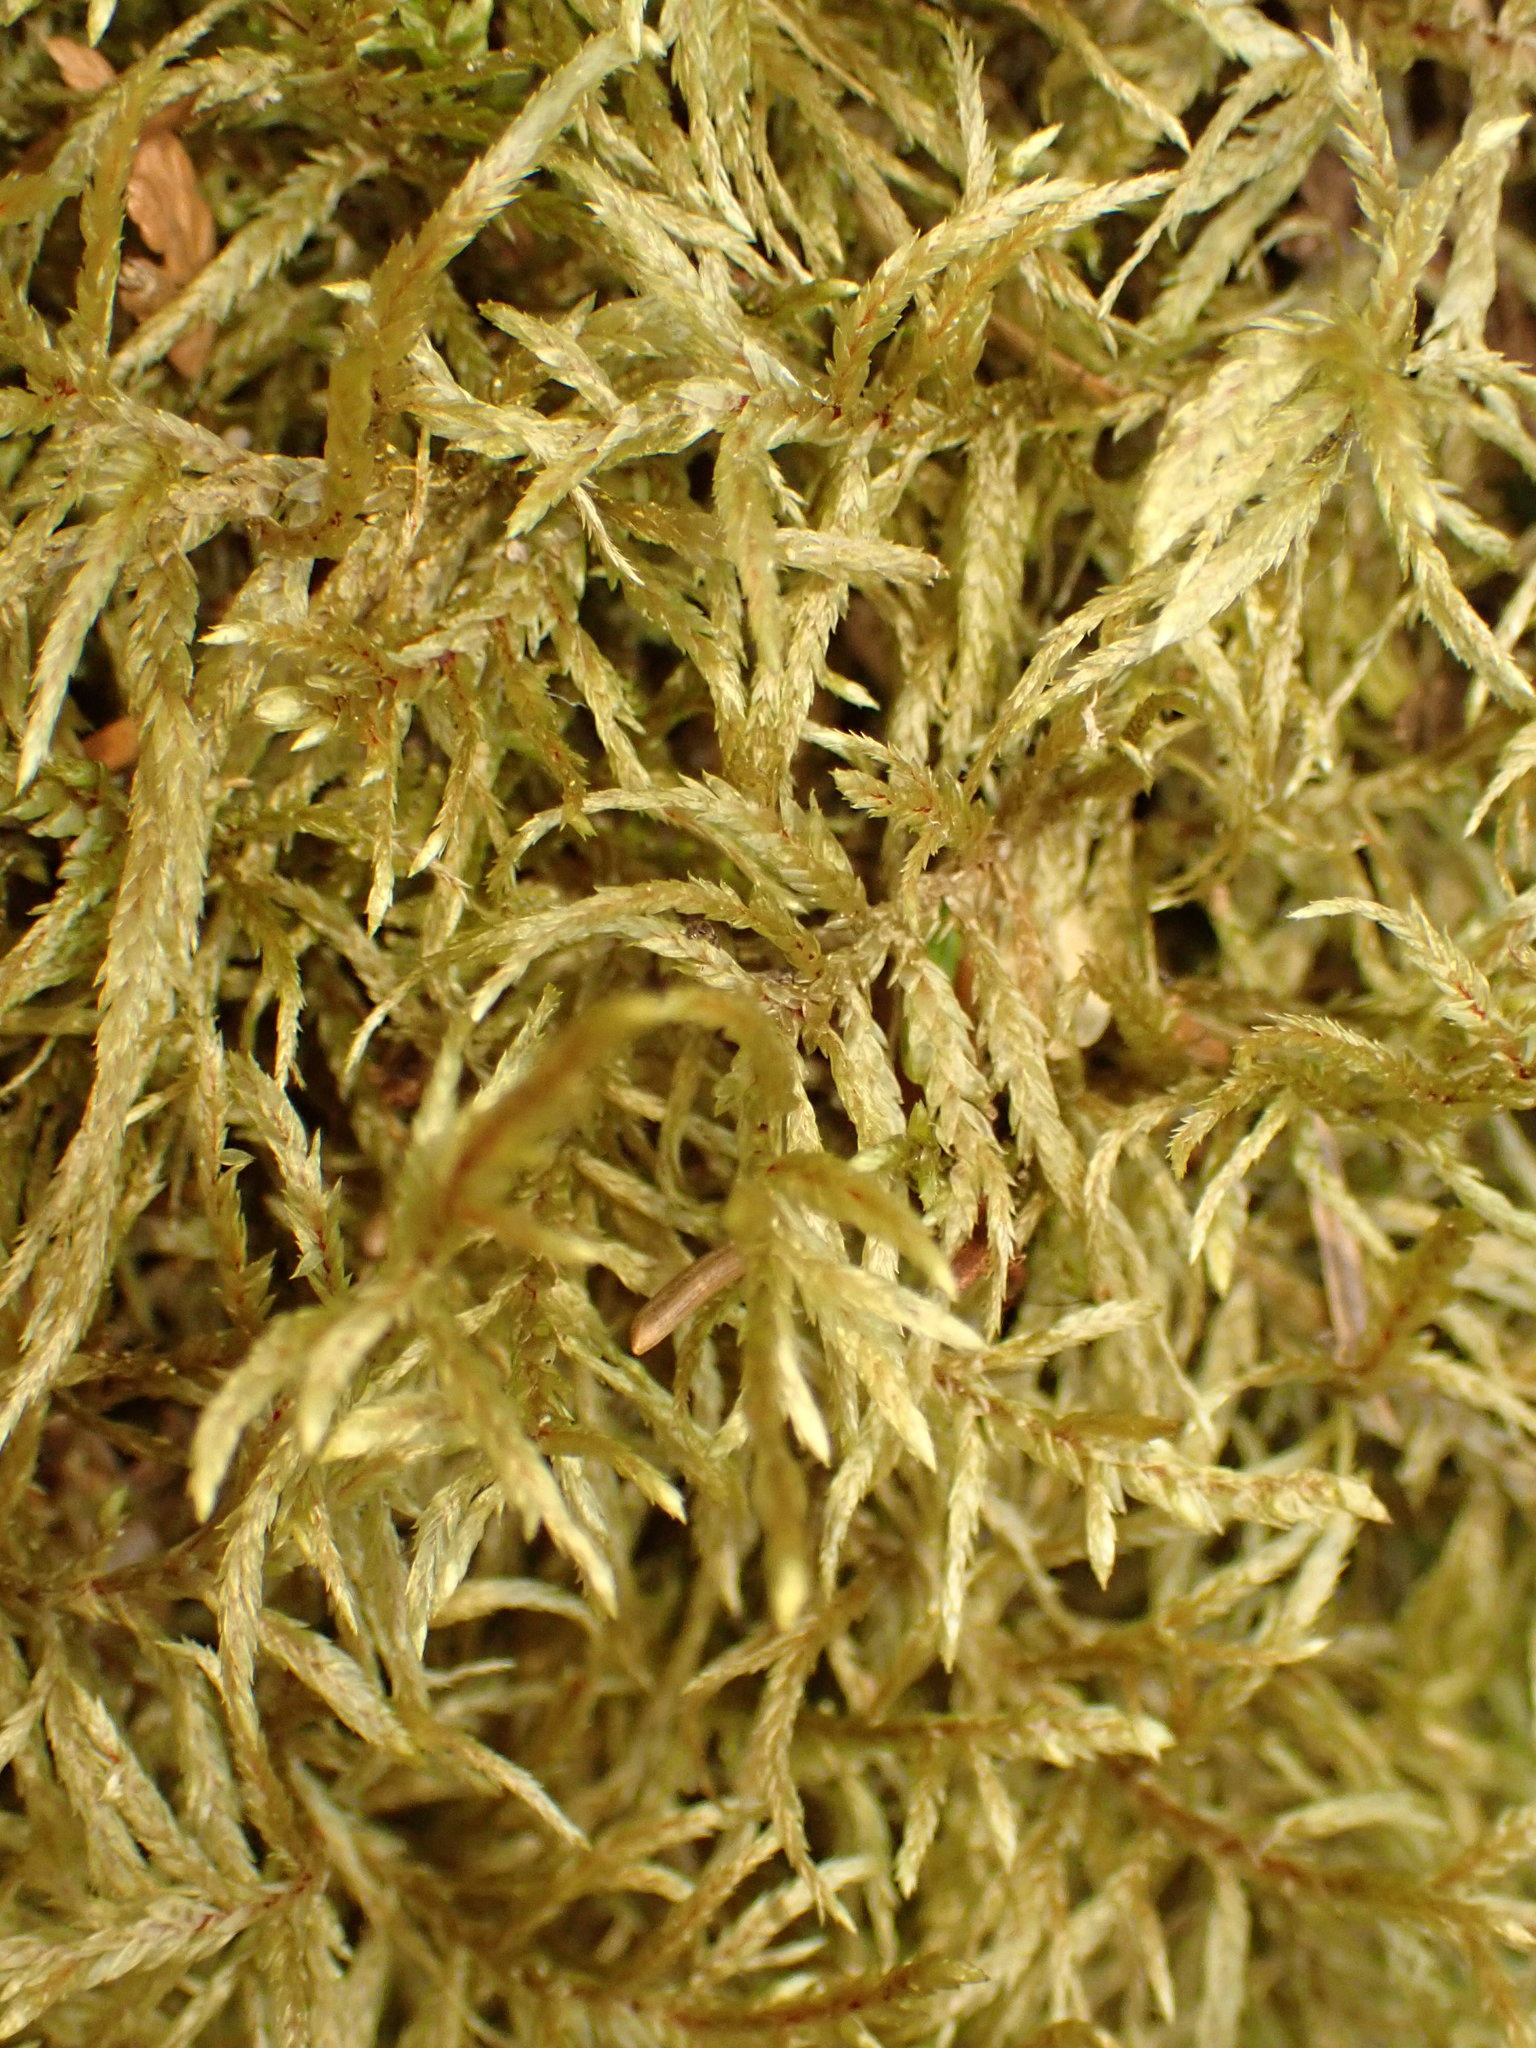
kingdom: Plantae
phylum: Bryophyta
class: Bryopsida
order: Hypnales
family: Hylocomiaceae
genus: Pleurozium
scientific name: Pleurozium schreberi
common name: Red-stemmed feather moss
